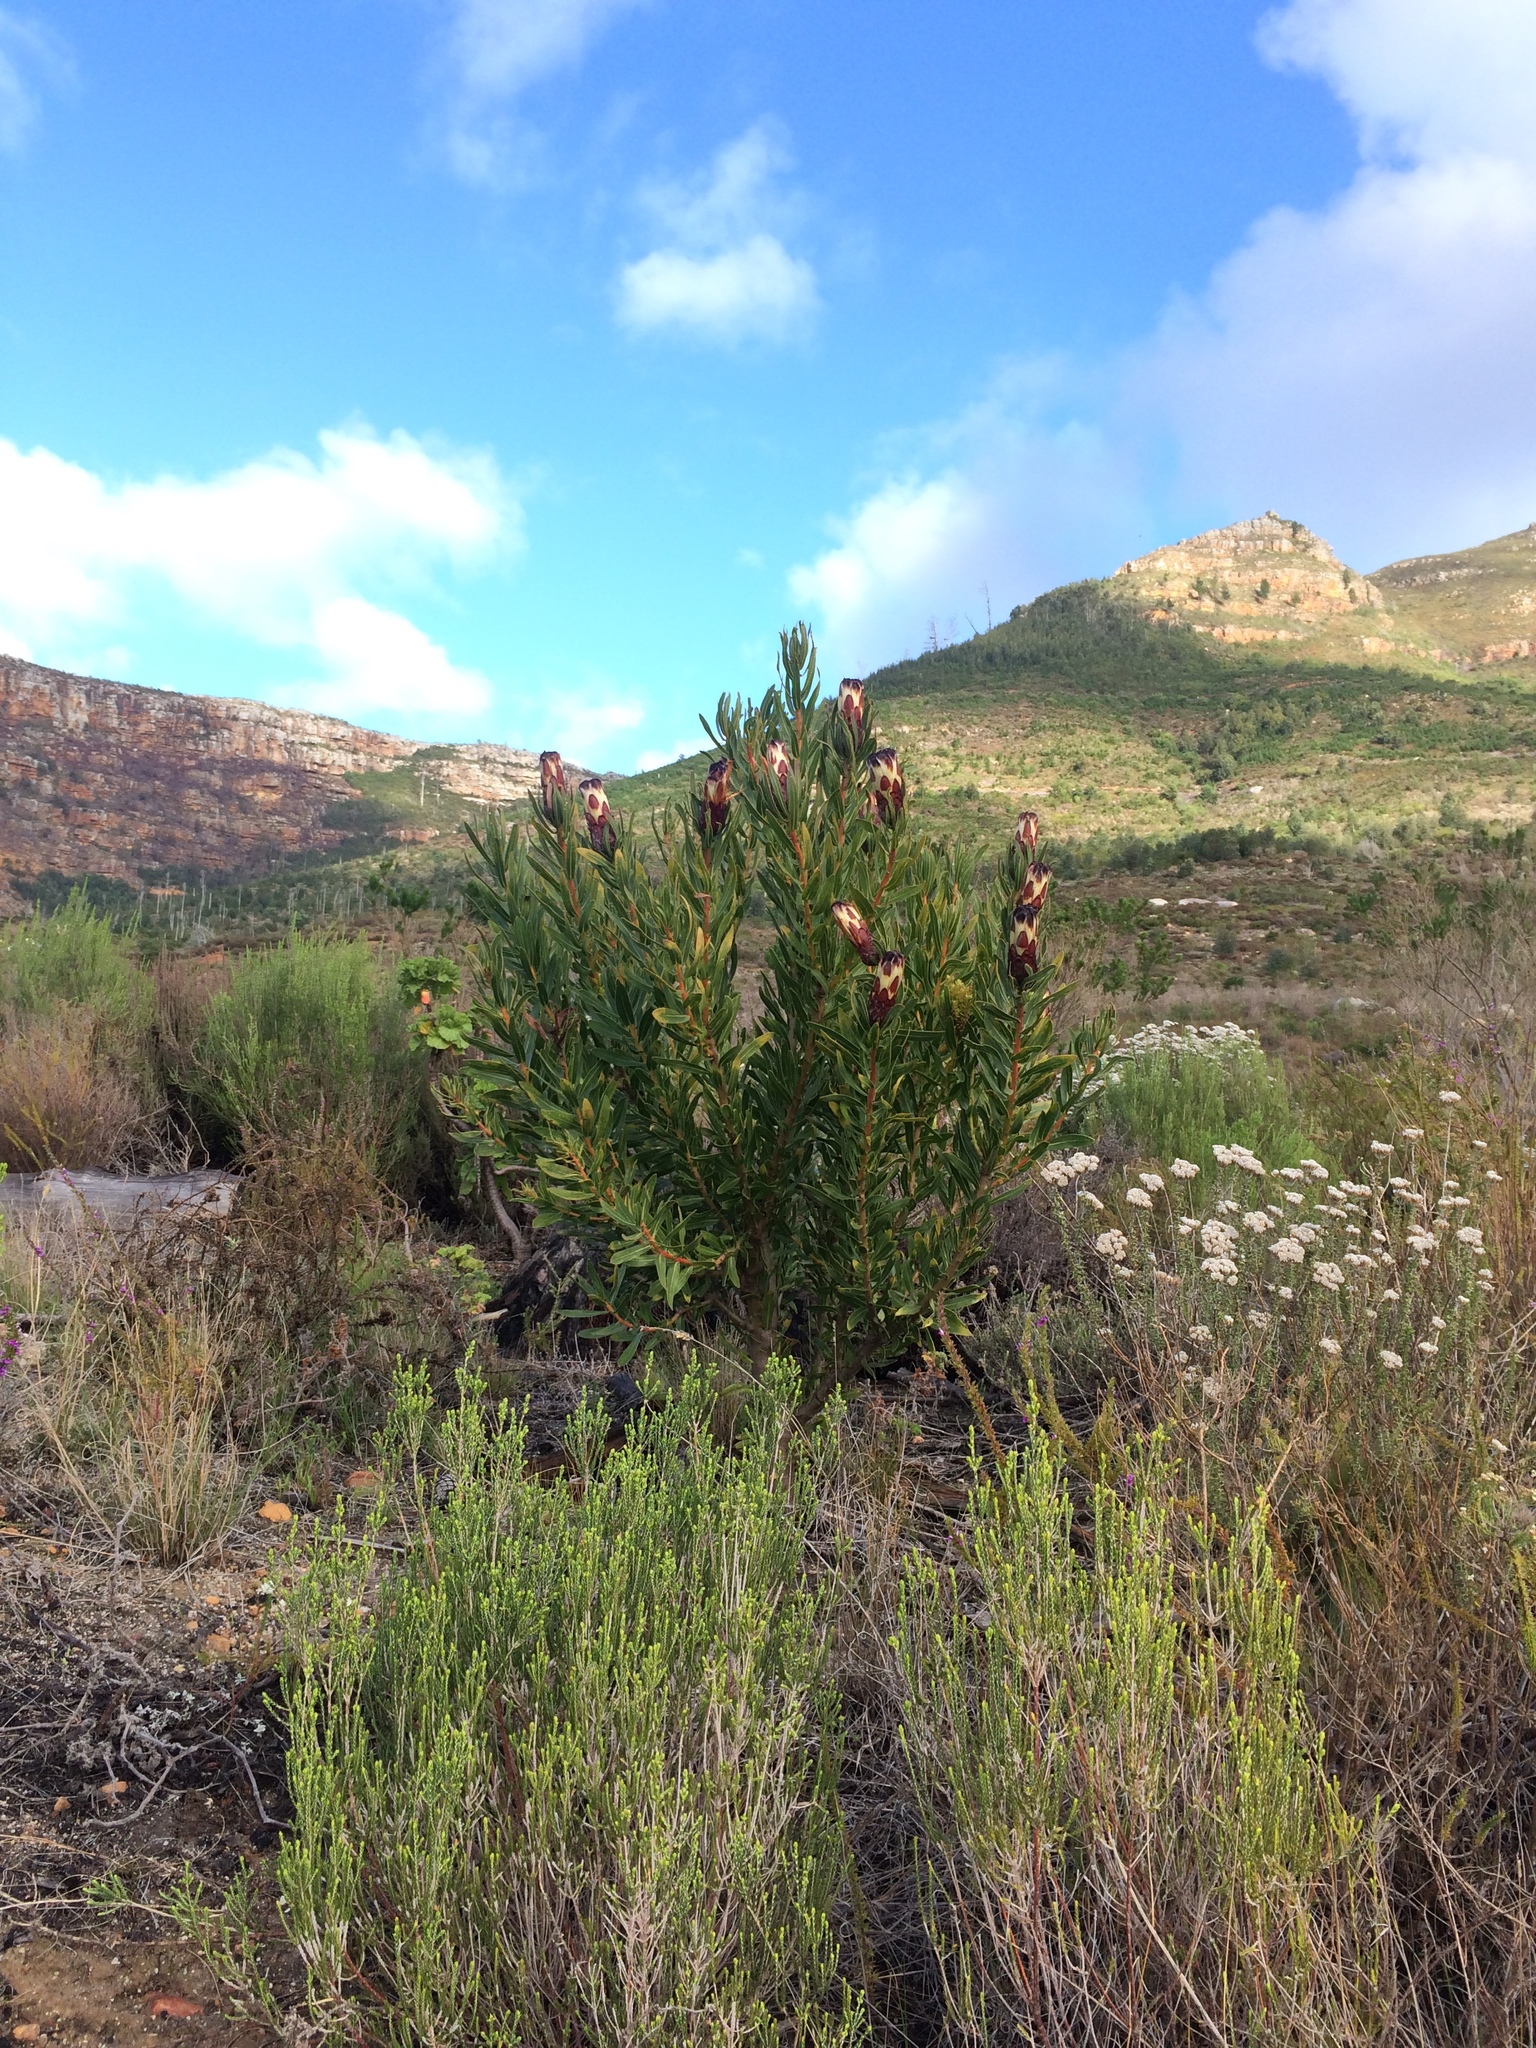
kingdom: Plantae
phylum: Tracheophyta
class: Magnoliopsida
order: Proteales
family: Proteaceae
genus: Protea
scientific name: Protea lepidocarpodendron
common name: Black-bearded protea
